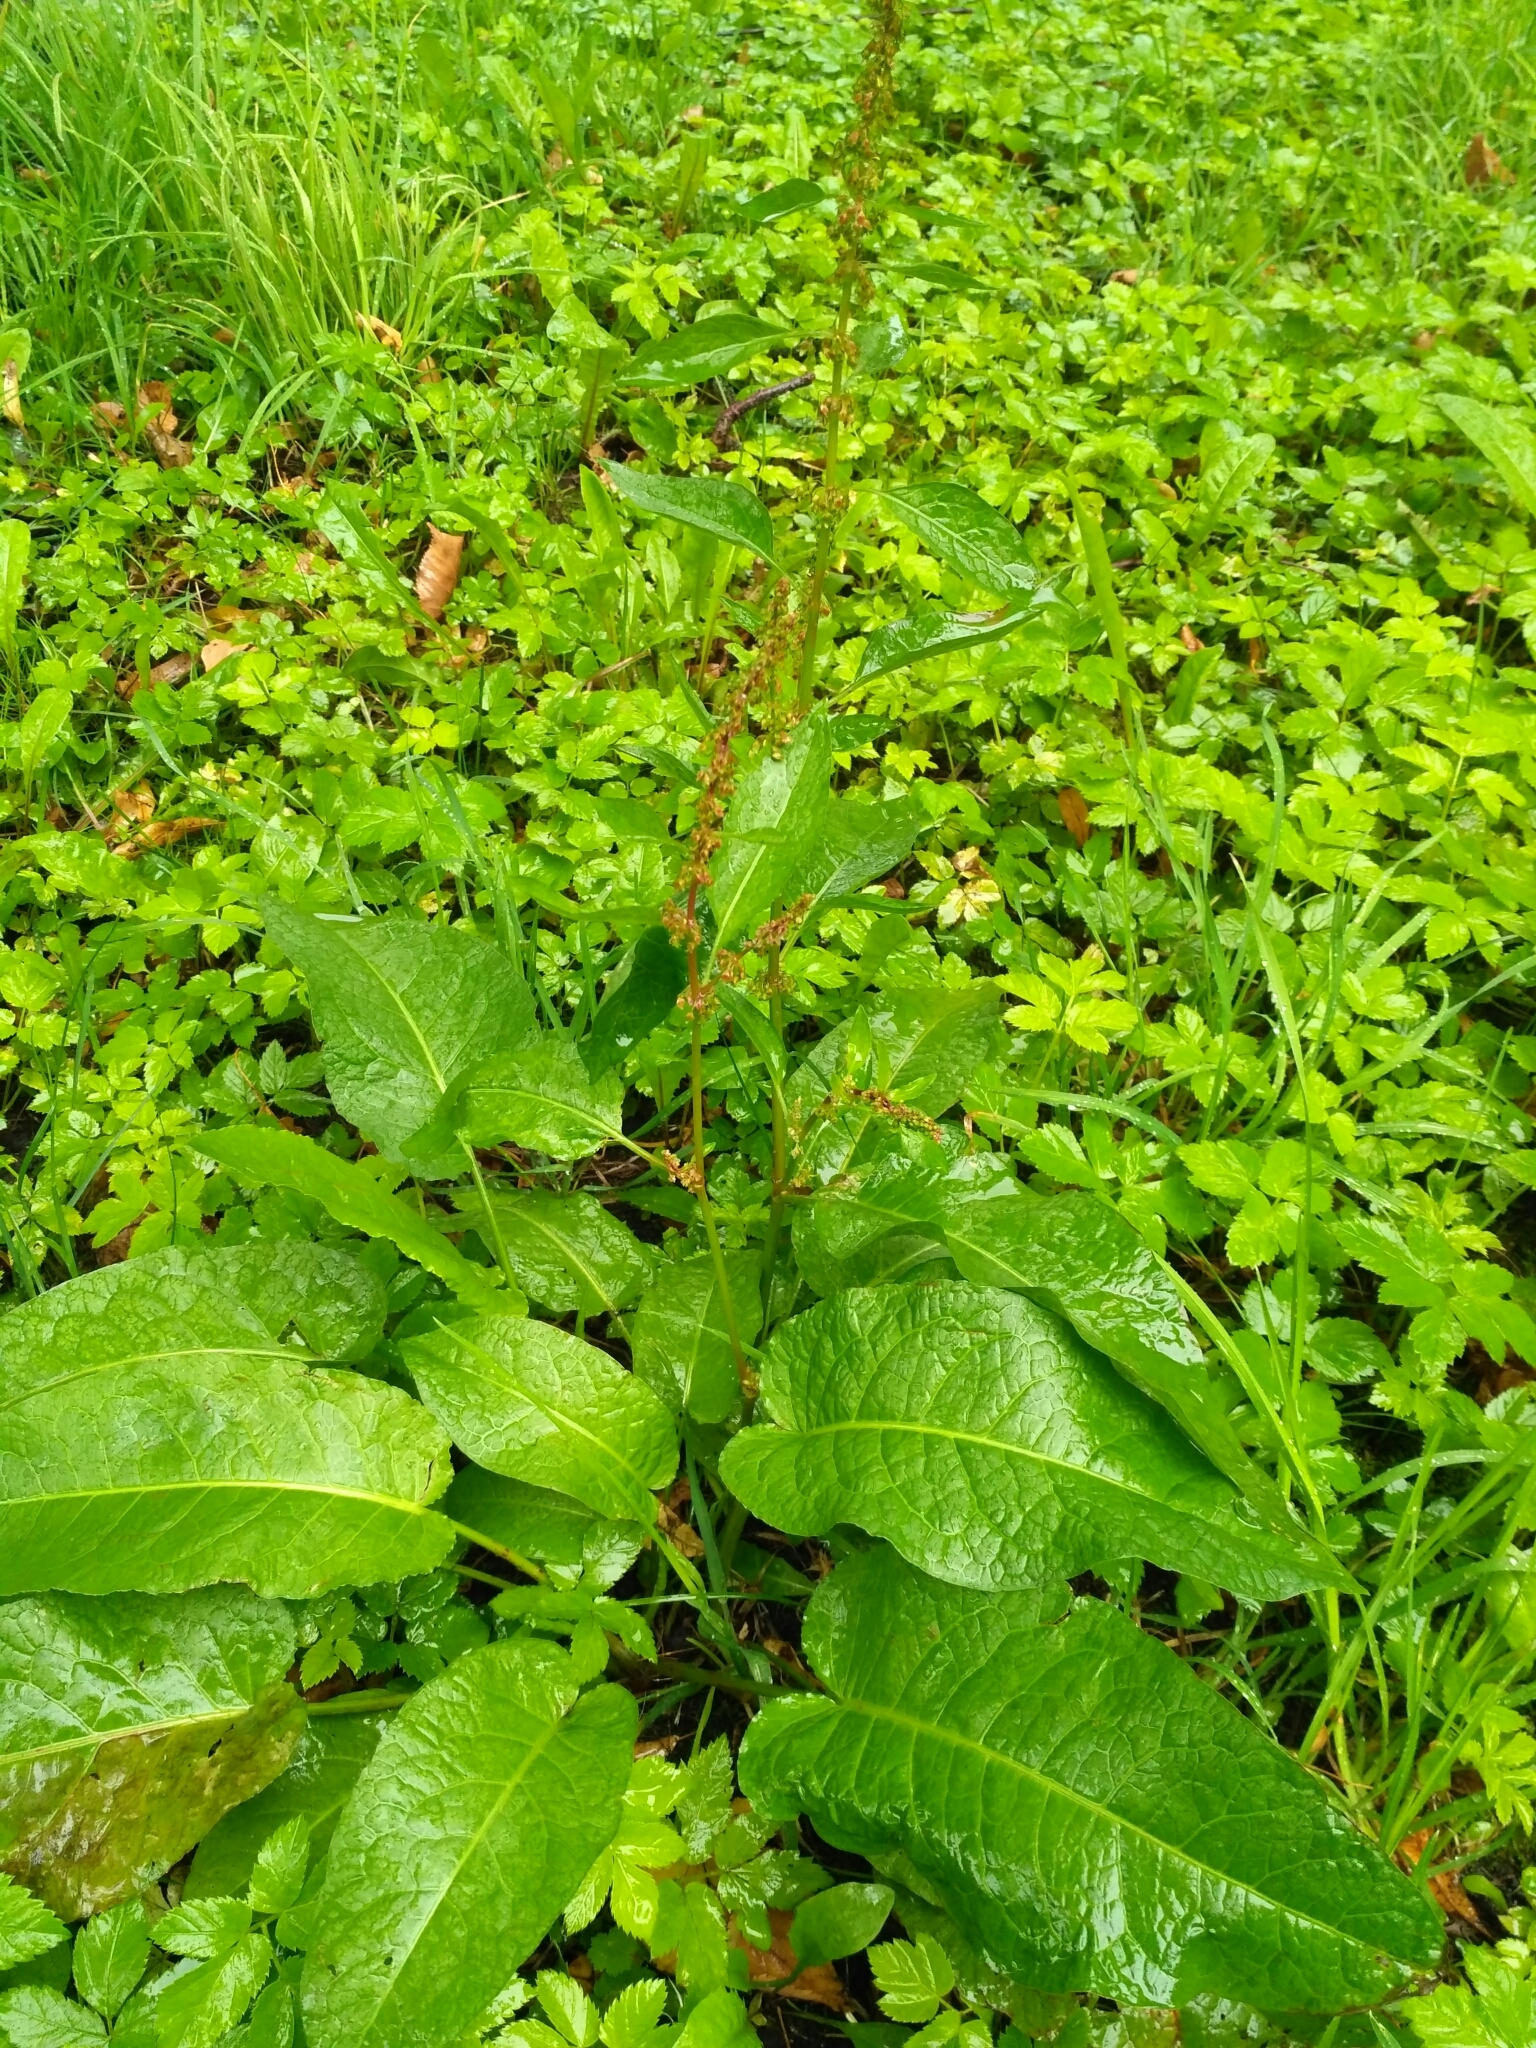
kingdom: Plantae
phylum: Tracheophyta
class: Magnoliopsida
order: Caryophyllales
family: Polygonaceae
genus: Rumex
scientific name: Rumex obtusifolius
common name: Bitter dock
